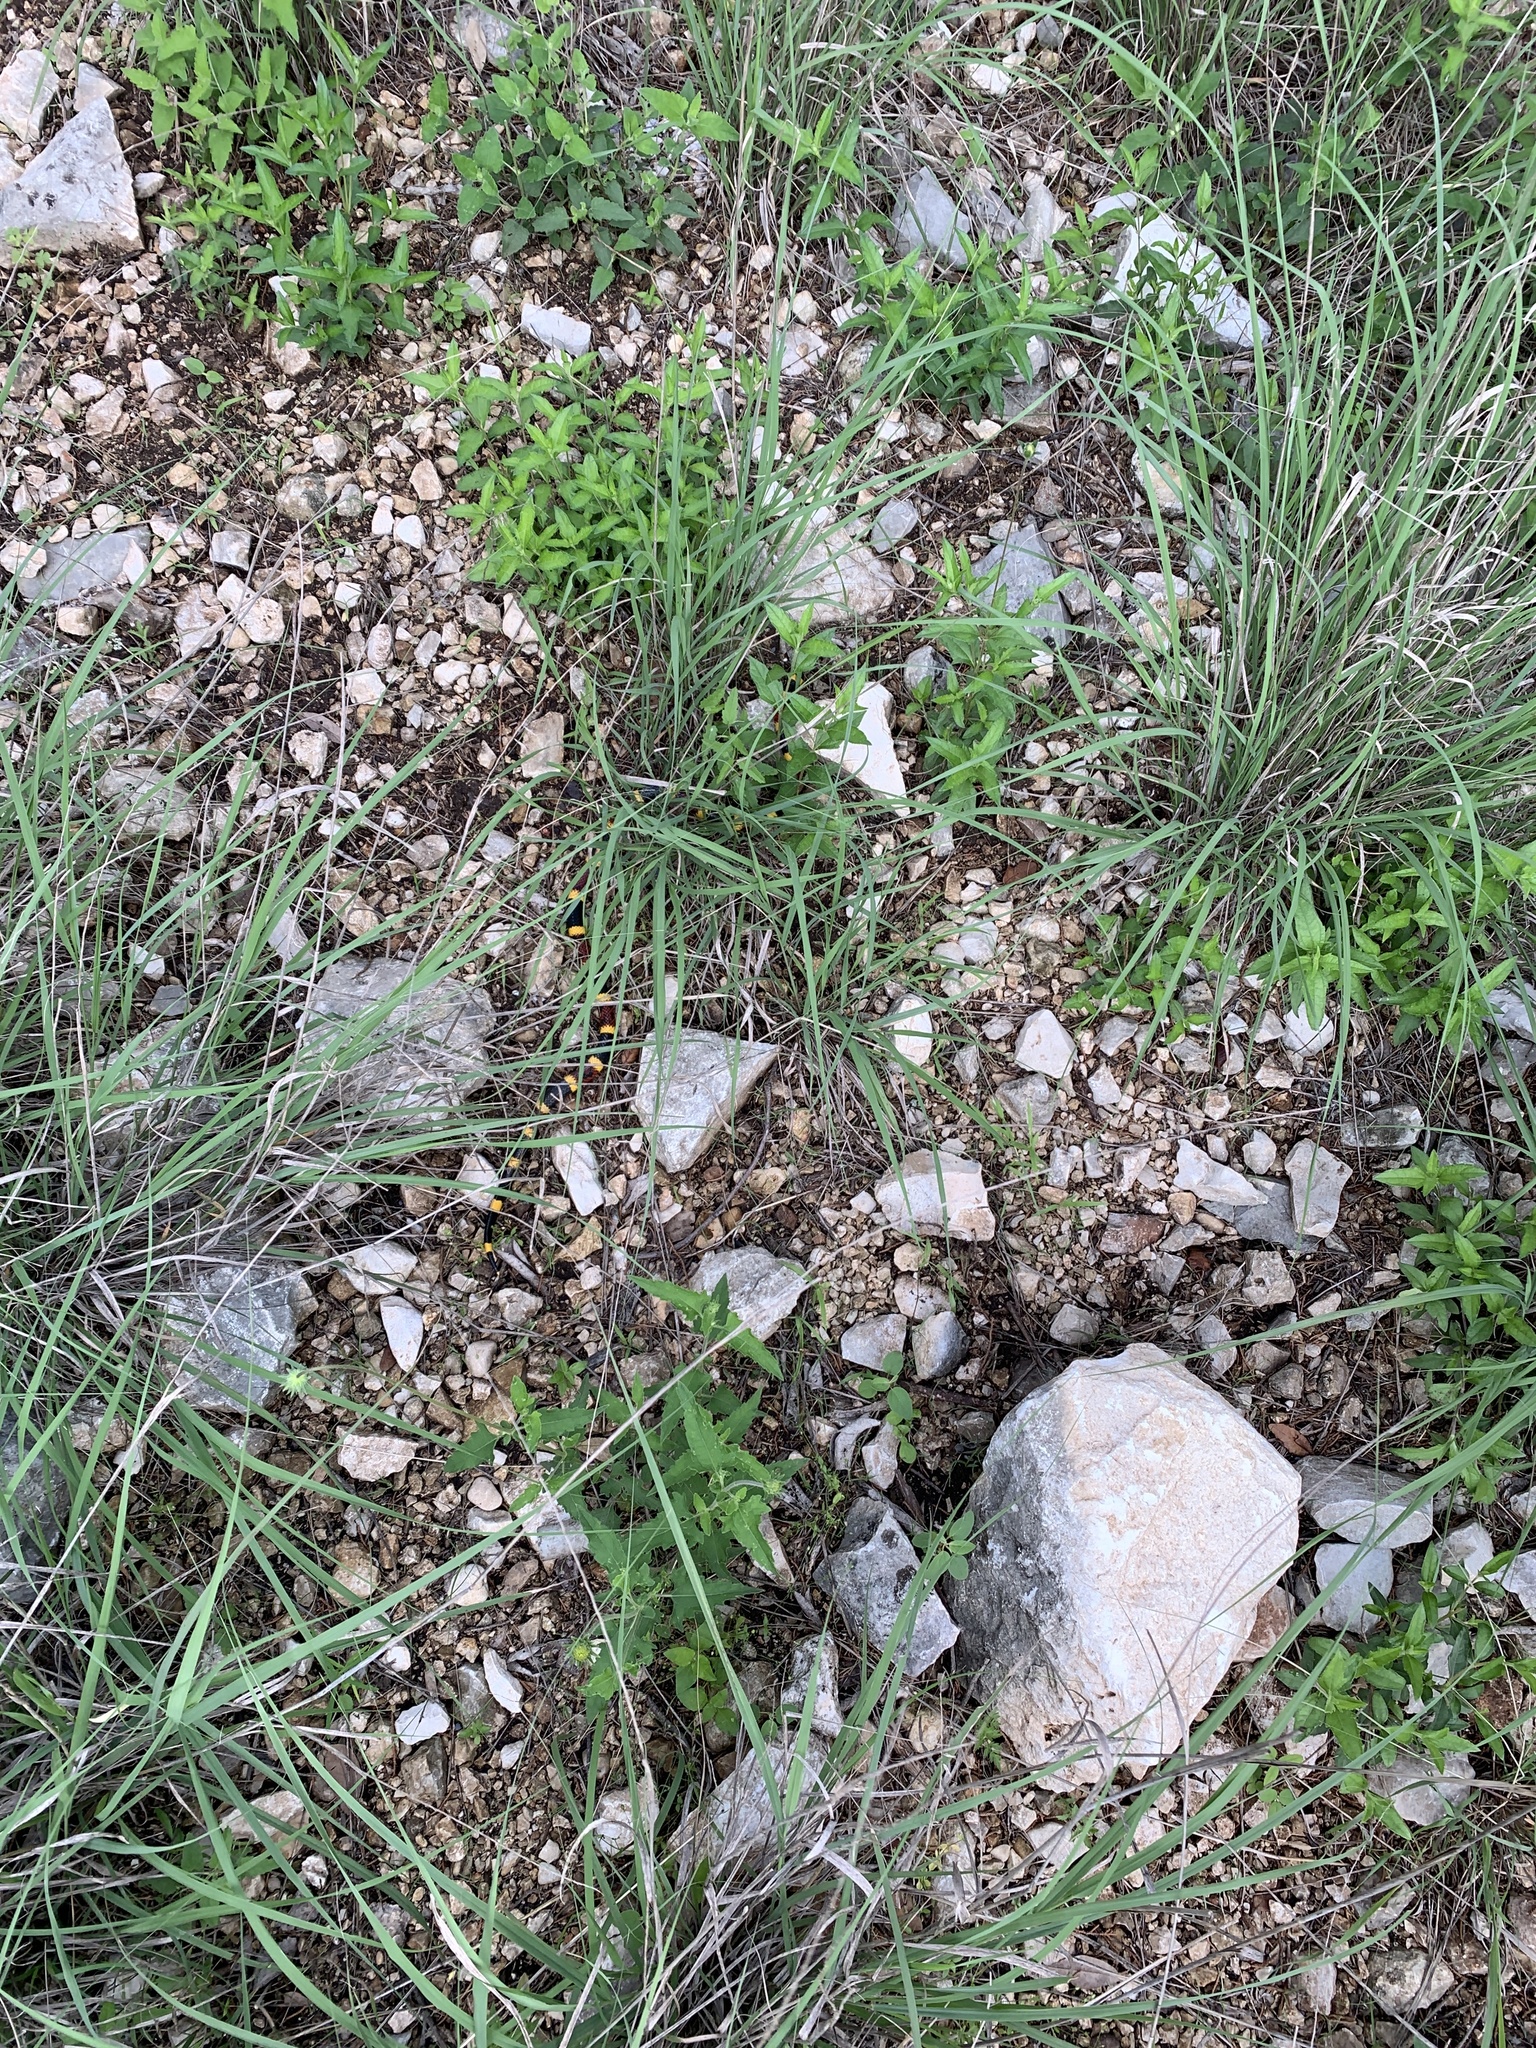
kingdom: Animalia
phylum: Chordata
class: Squamata
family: Elapidae
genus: Micrurus
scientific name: Micrurus tener
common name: Texas coral snake
